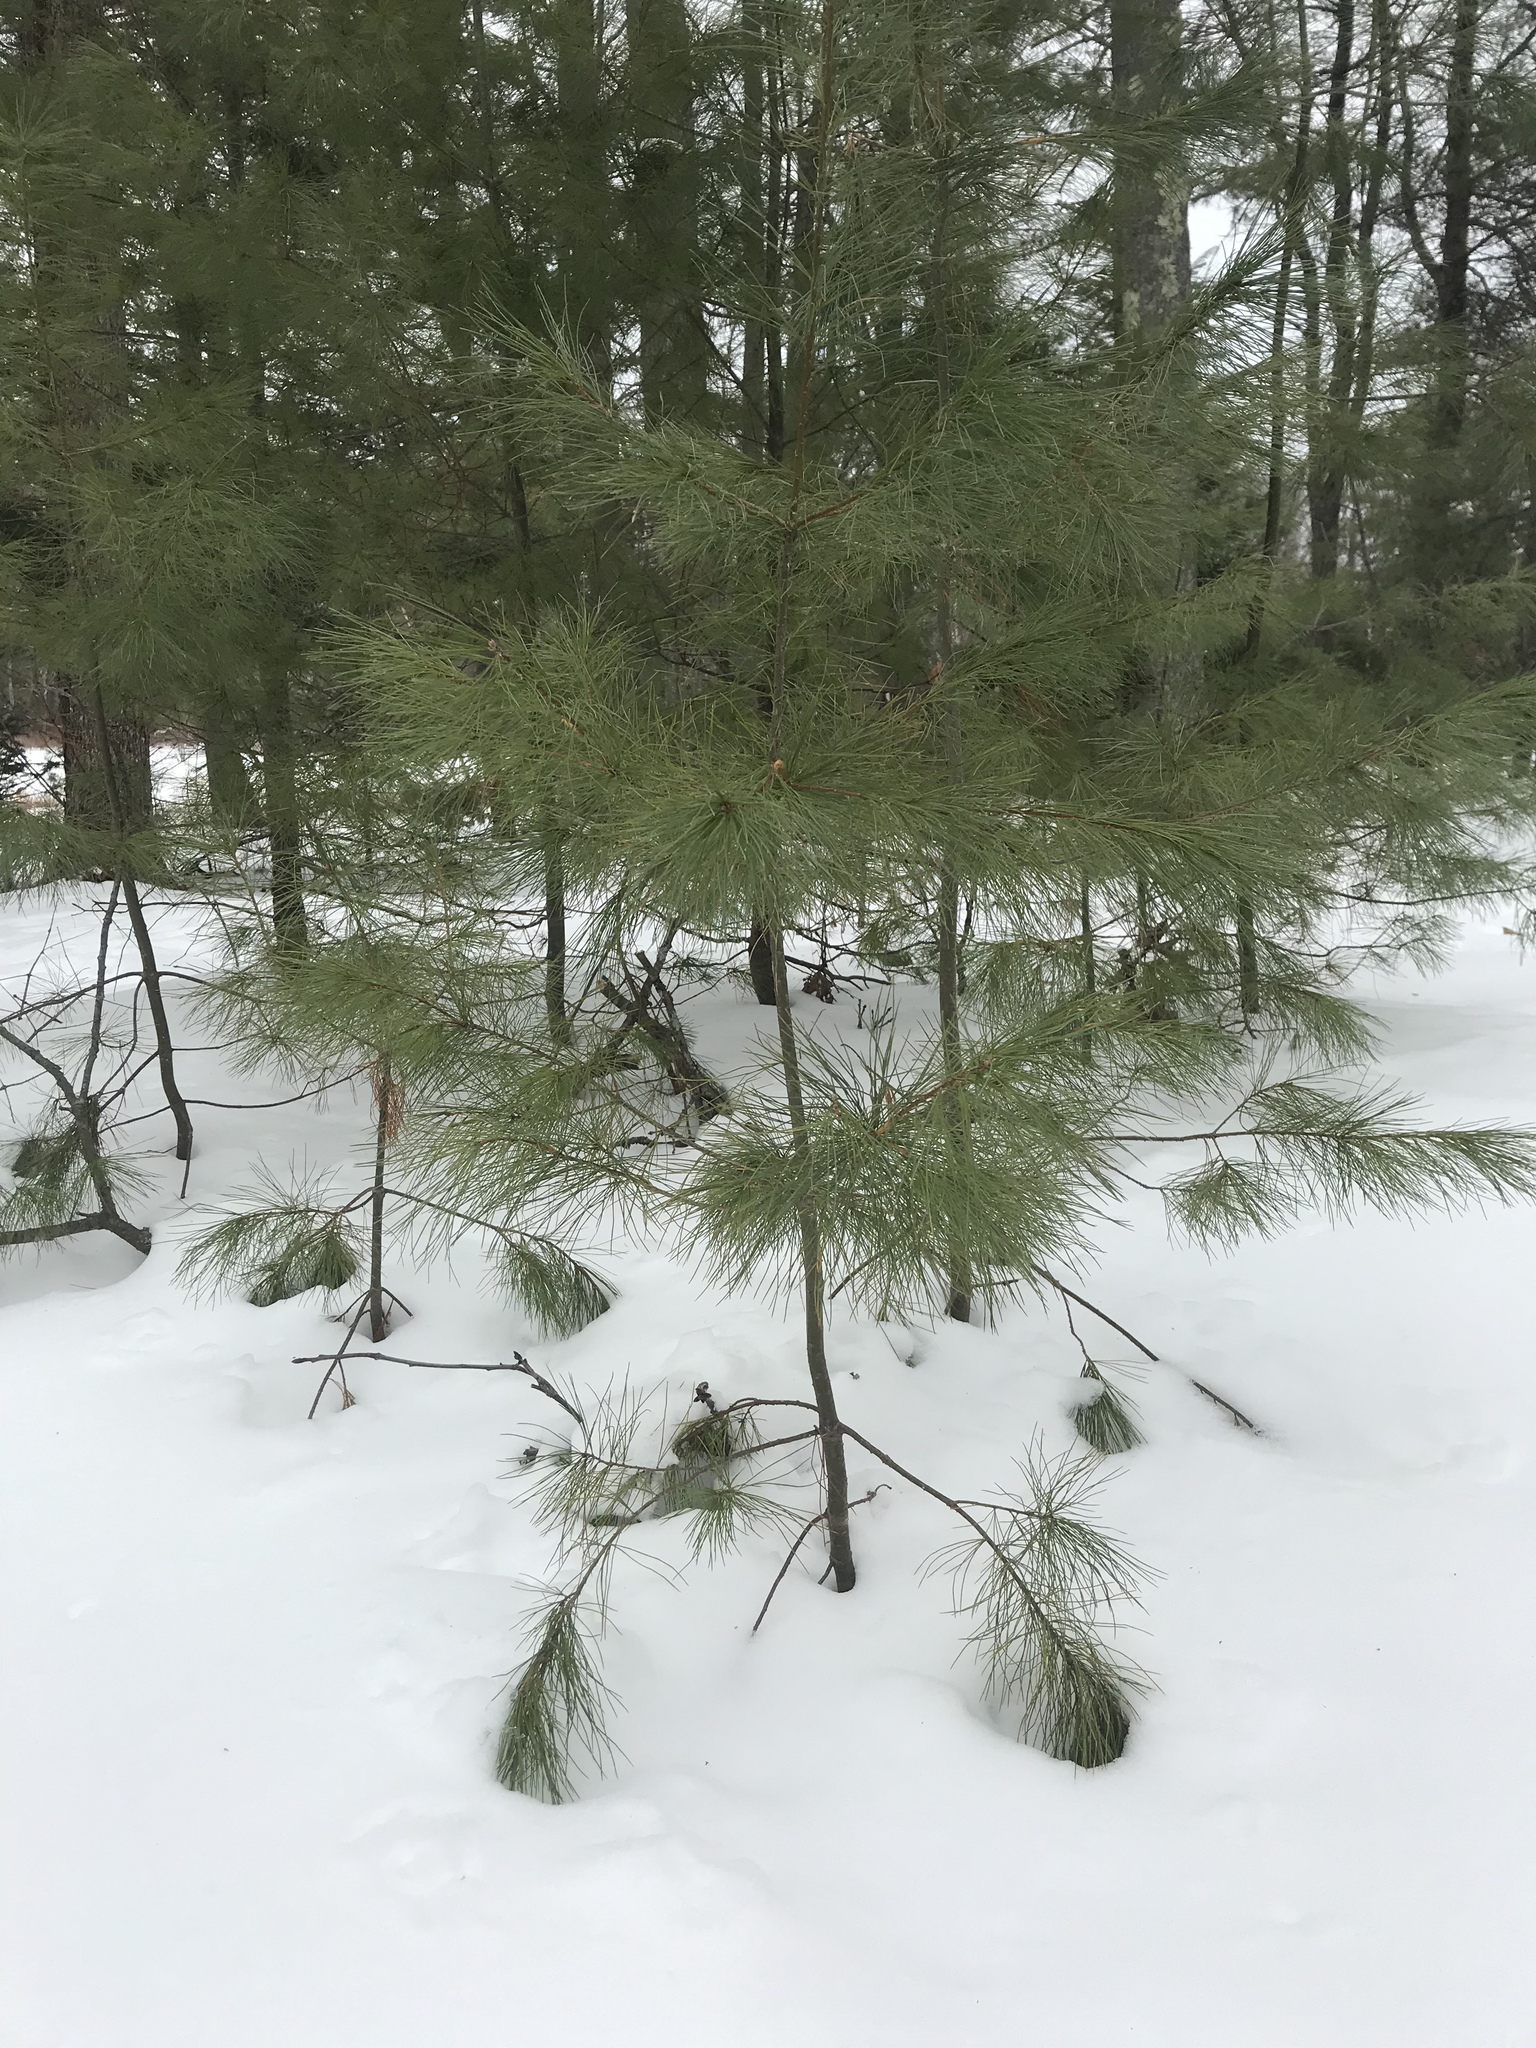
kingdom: Plantae
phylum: Tracheophyta
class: Pinopsida
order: Pinales
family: Pinaceae
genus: Pinus
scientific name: Pinus strobus
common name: Weymouth pine
